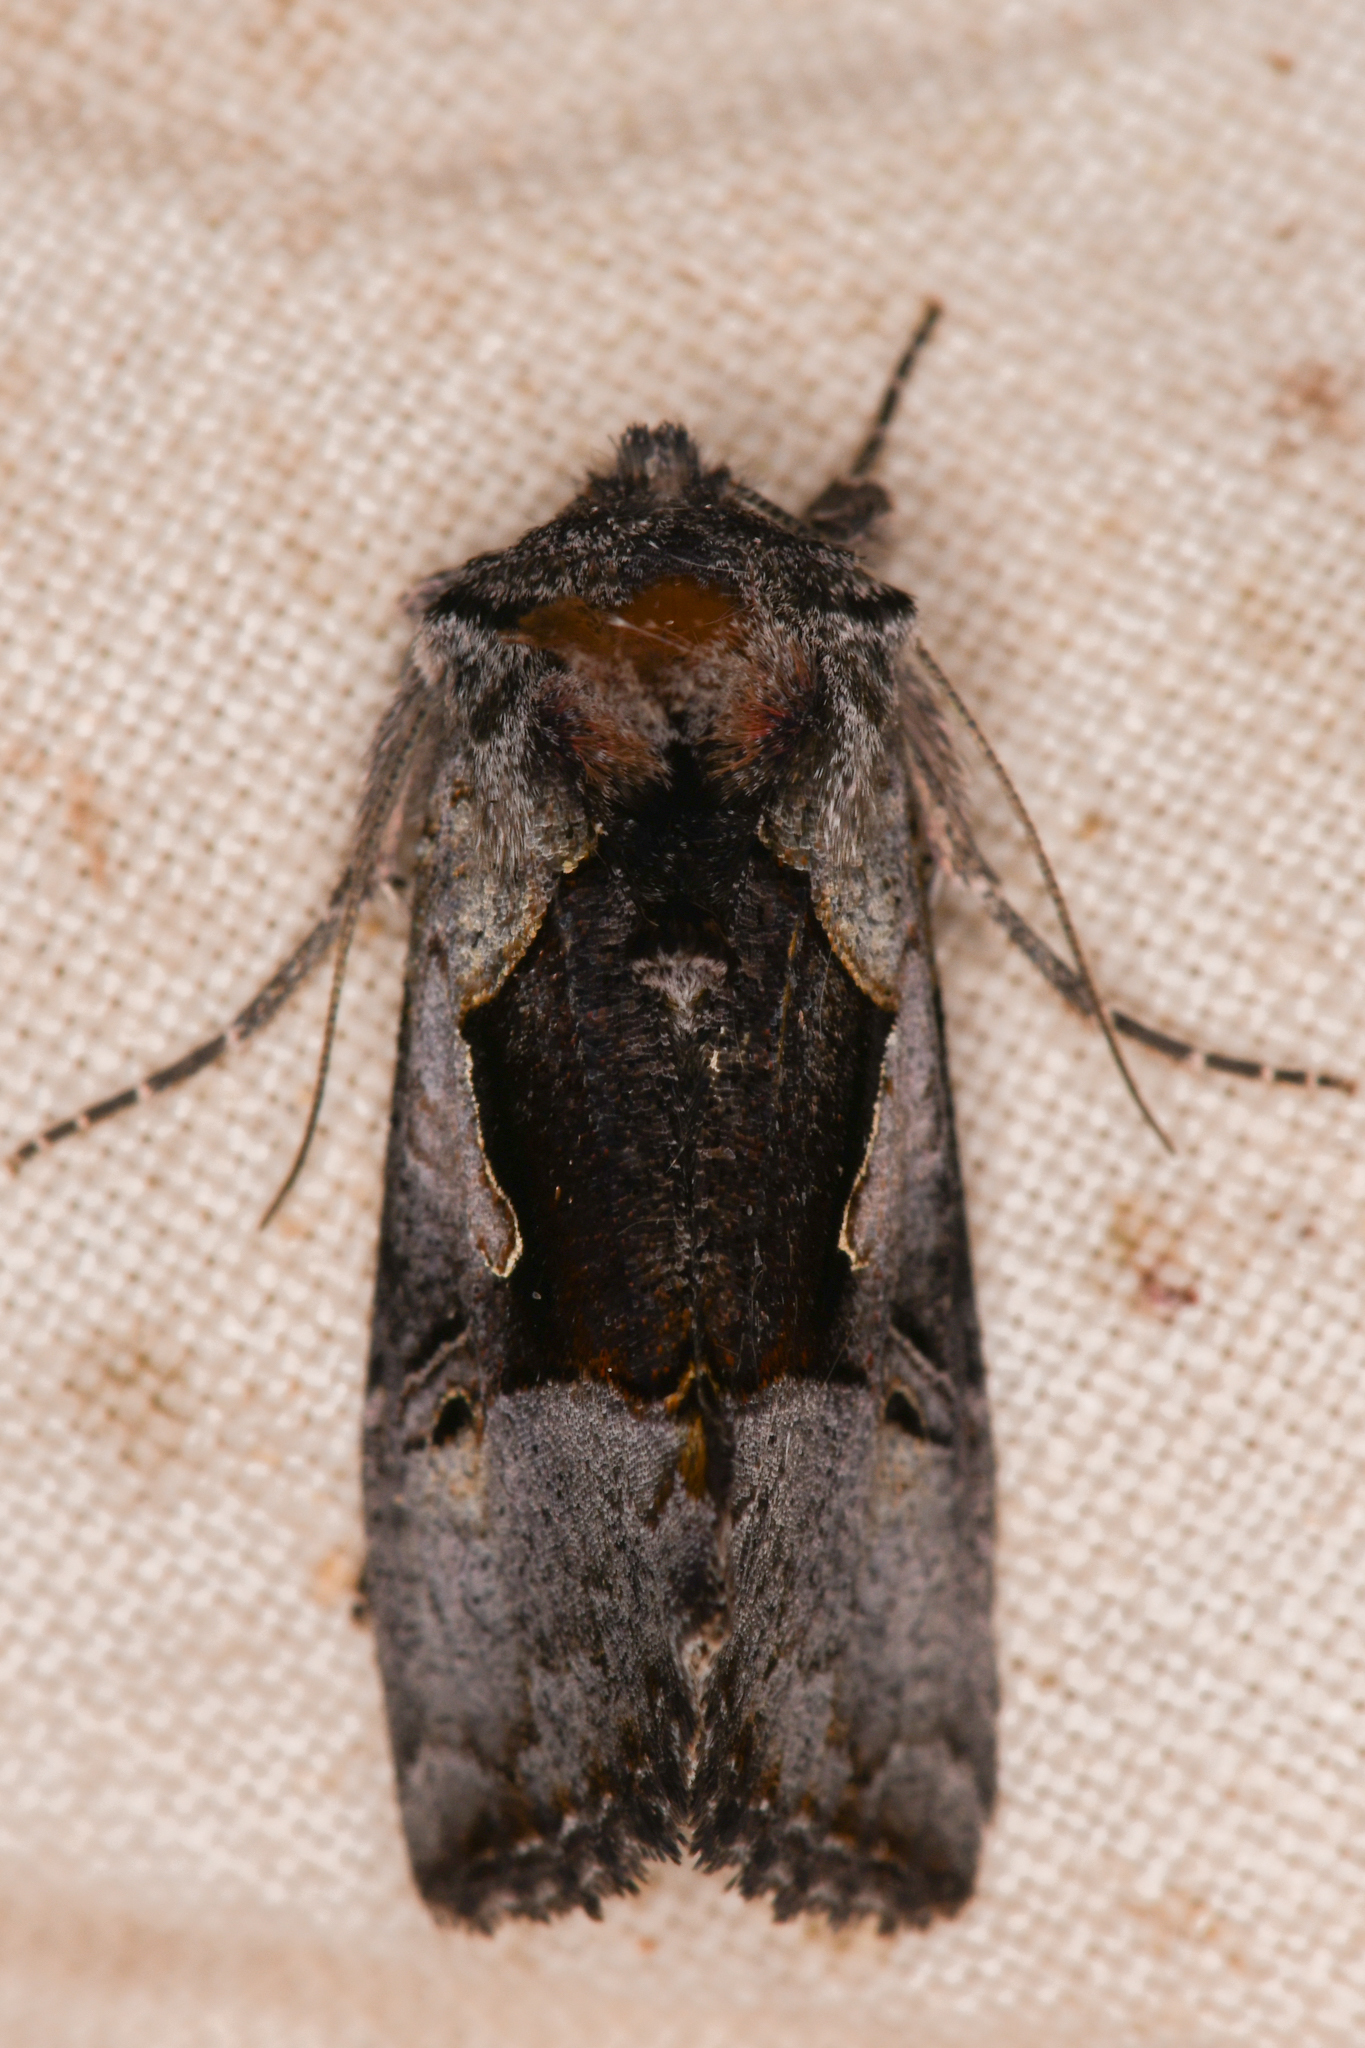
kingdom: Animalia
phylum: Arthropoda
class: Insecta
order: Lepidoptera
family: Noctuidae
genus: Autographa
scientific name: Autographa ampla
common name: Large looper moth
